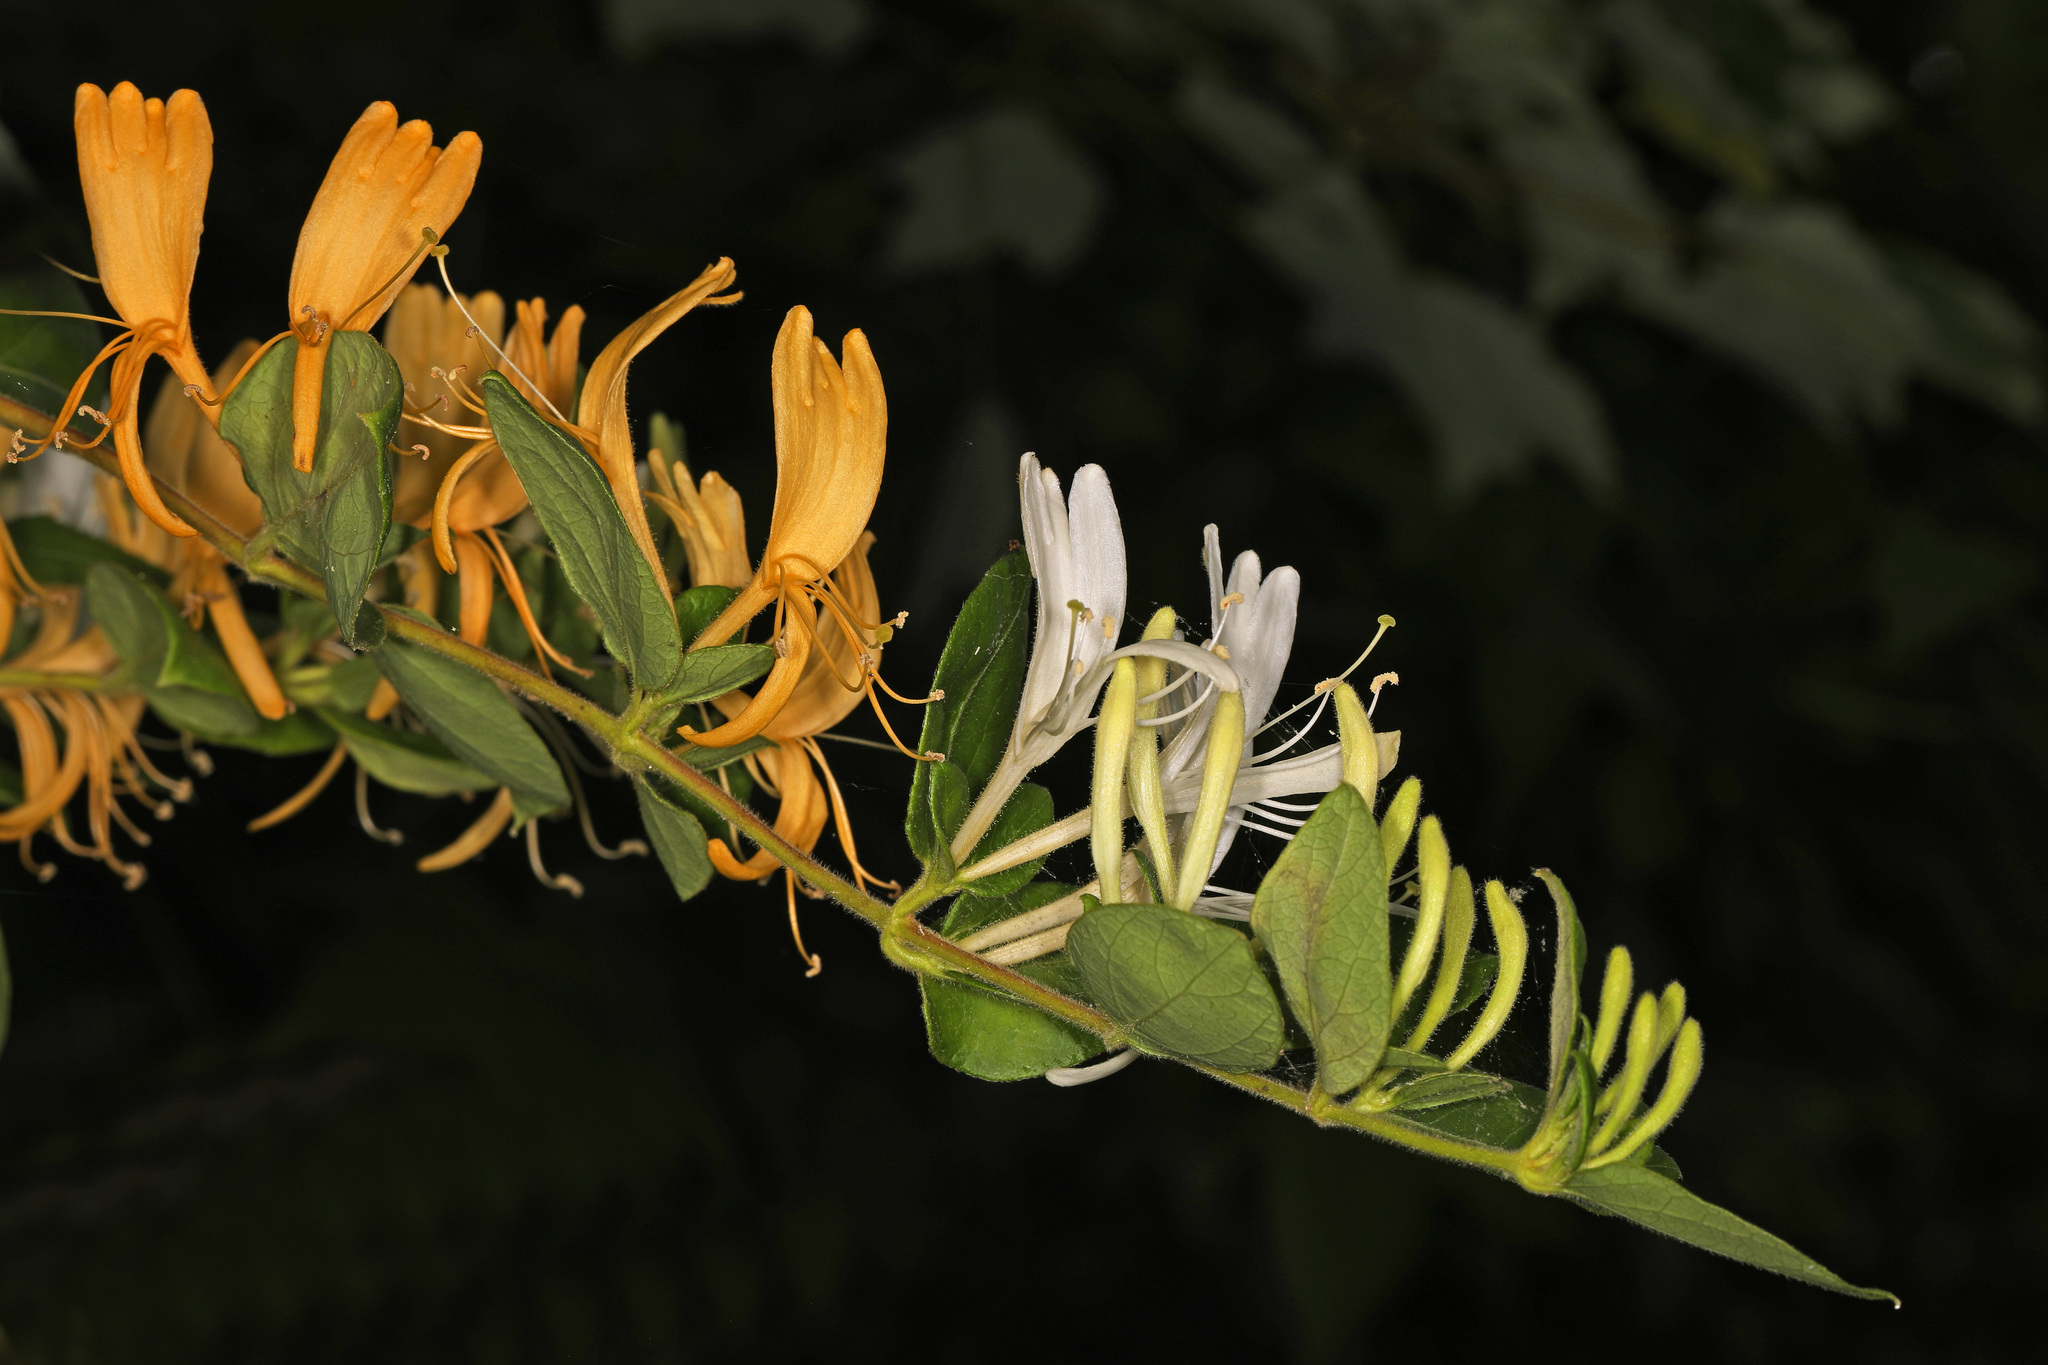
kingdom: Plantae
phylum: Tracheophyta
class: Magnoliopsida
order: Dipsacales
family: Caprifoliaceae
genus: Lonicera
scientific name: Lonicera japonica
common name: Japanese honeysuckle
